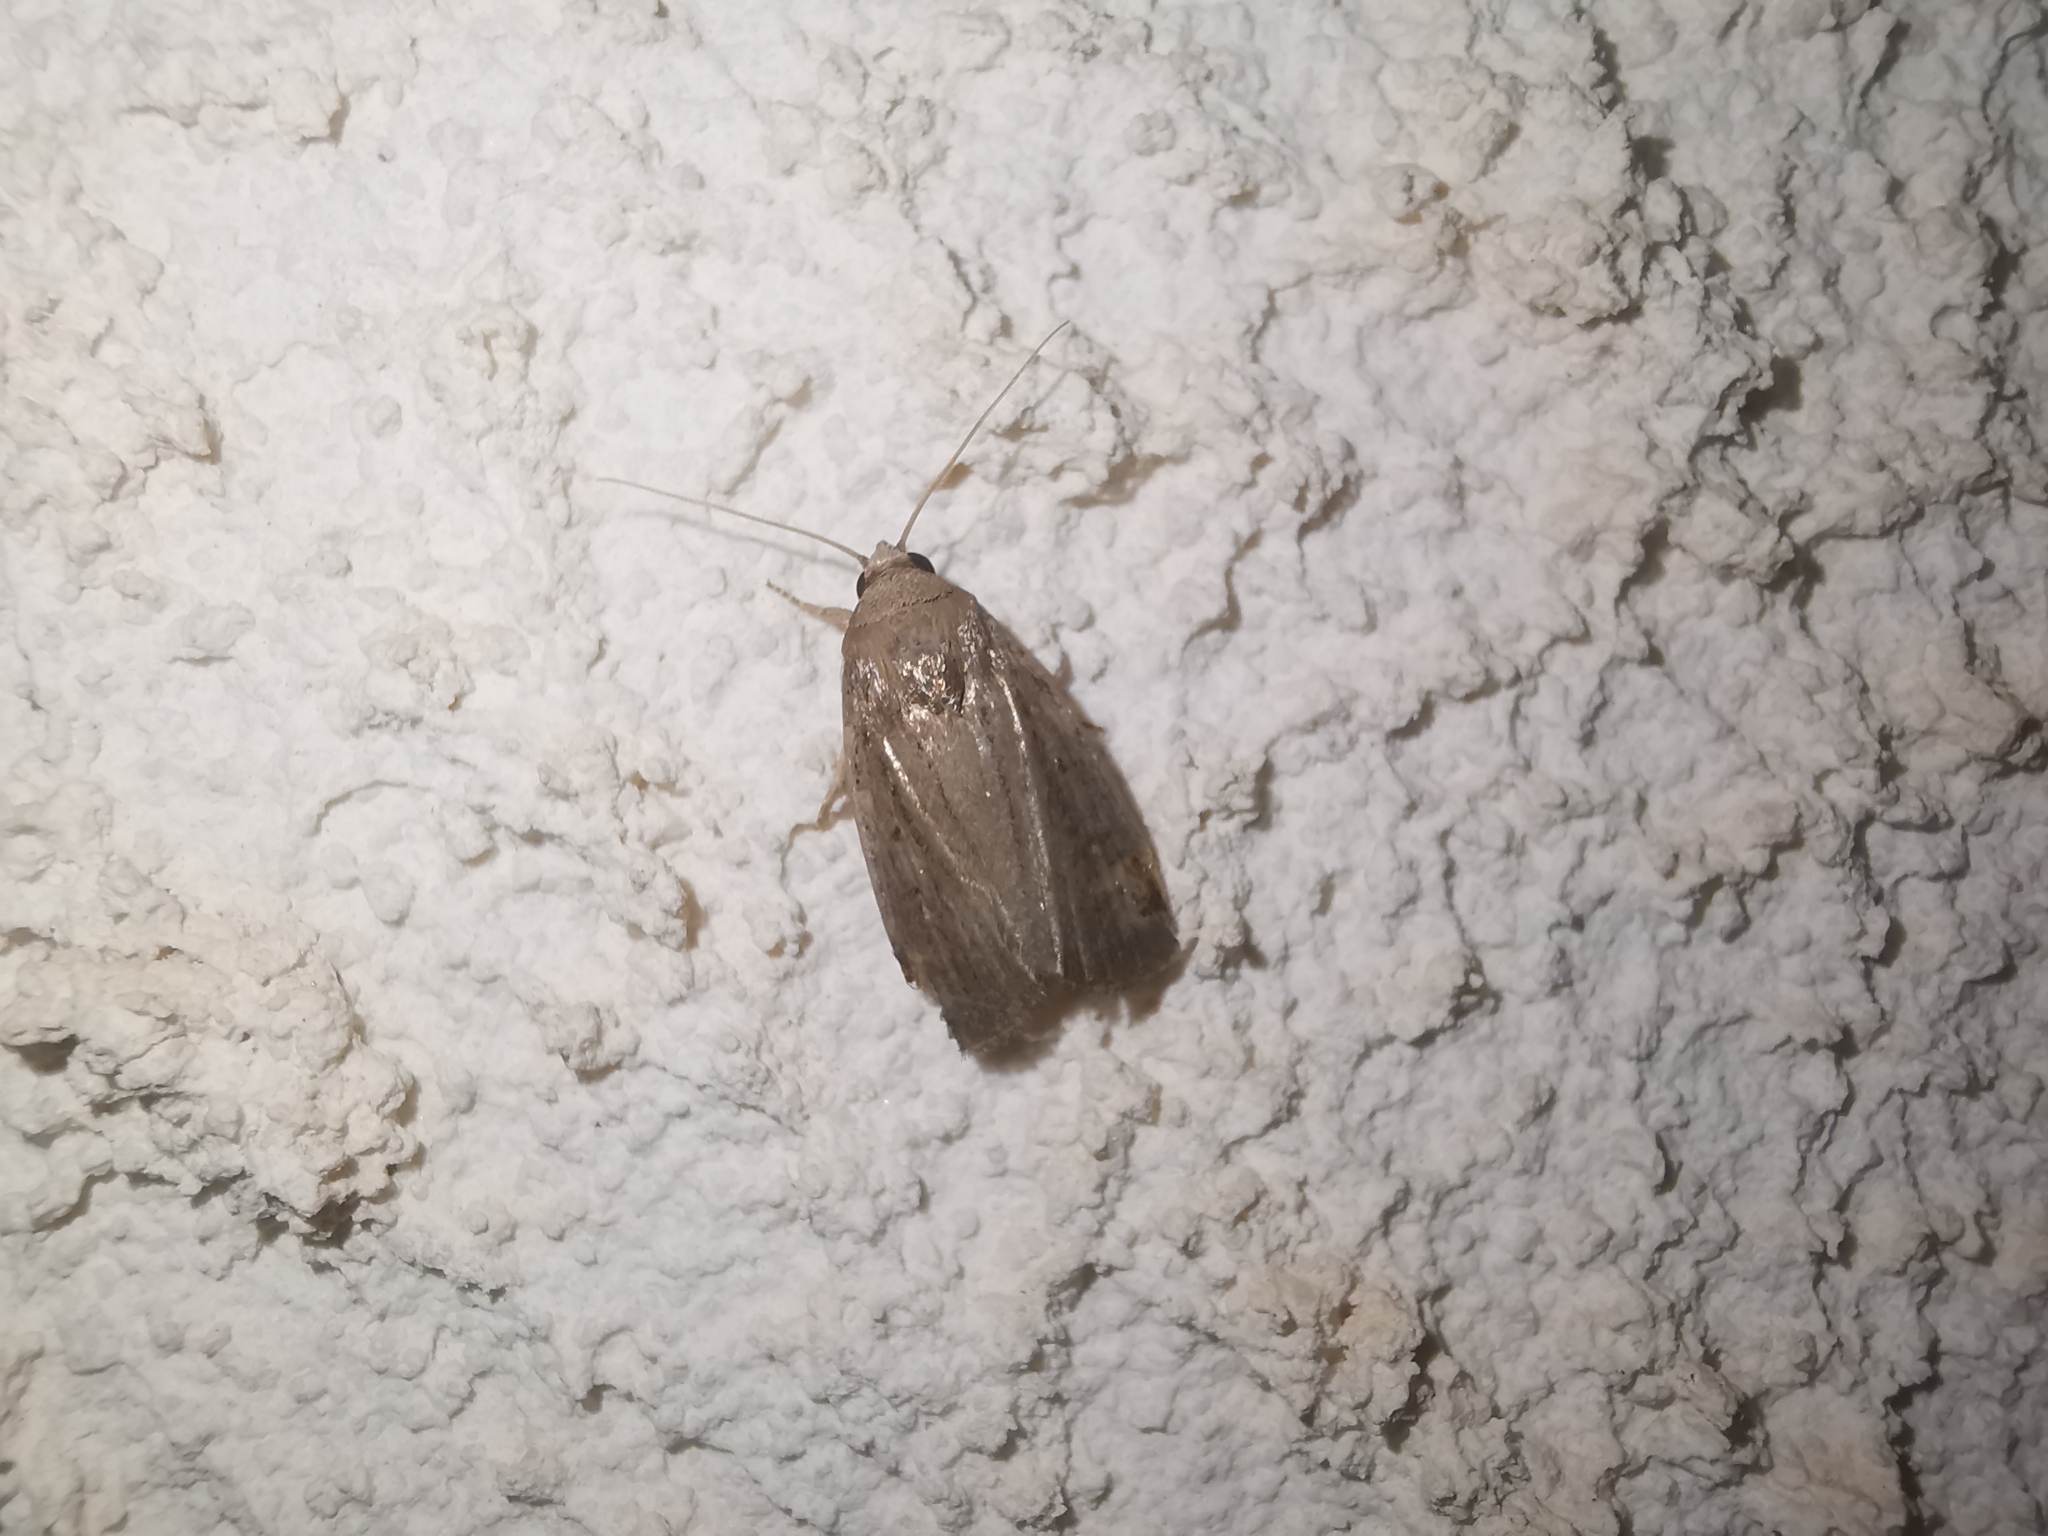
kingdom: Animalia
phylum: Arthropoda
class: Insecta
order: Lepidoptera
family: Noctuidae
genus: Athetis
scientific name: Athetis hospes
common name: Porter's rustic
